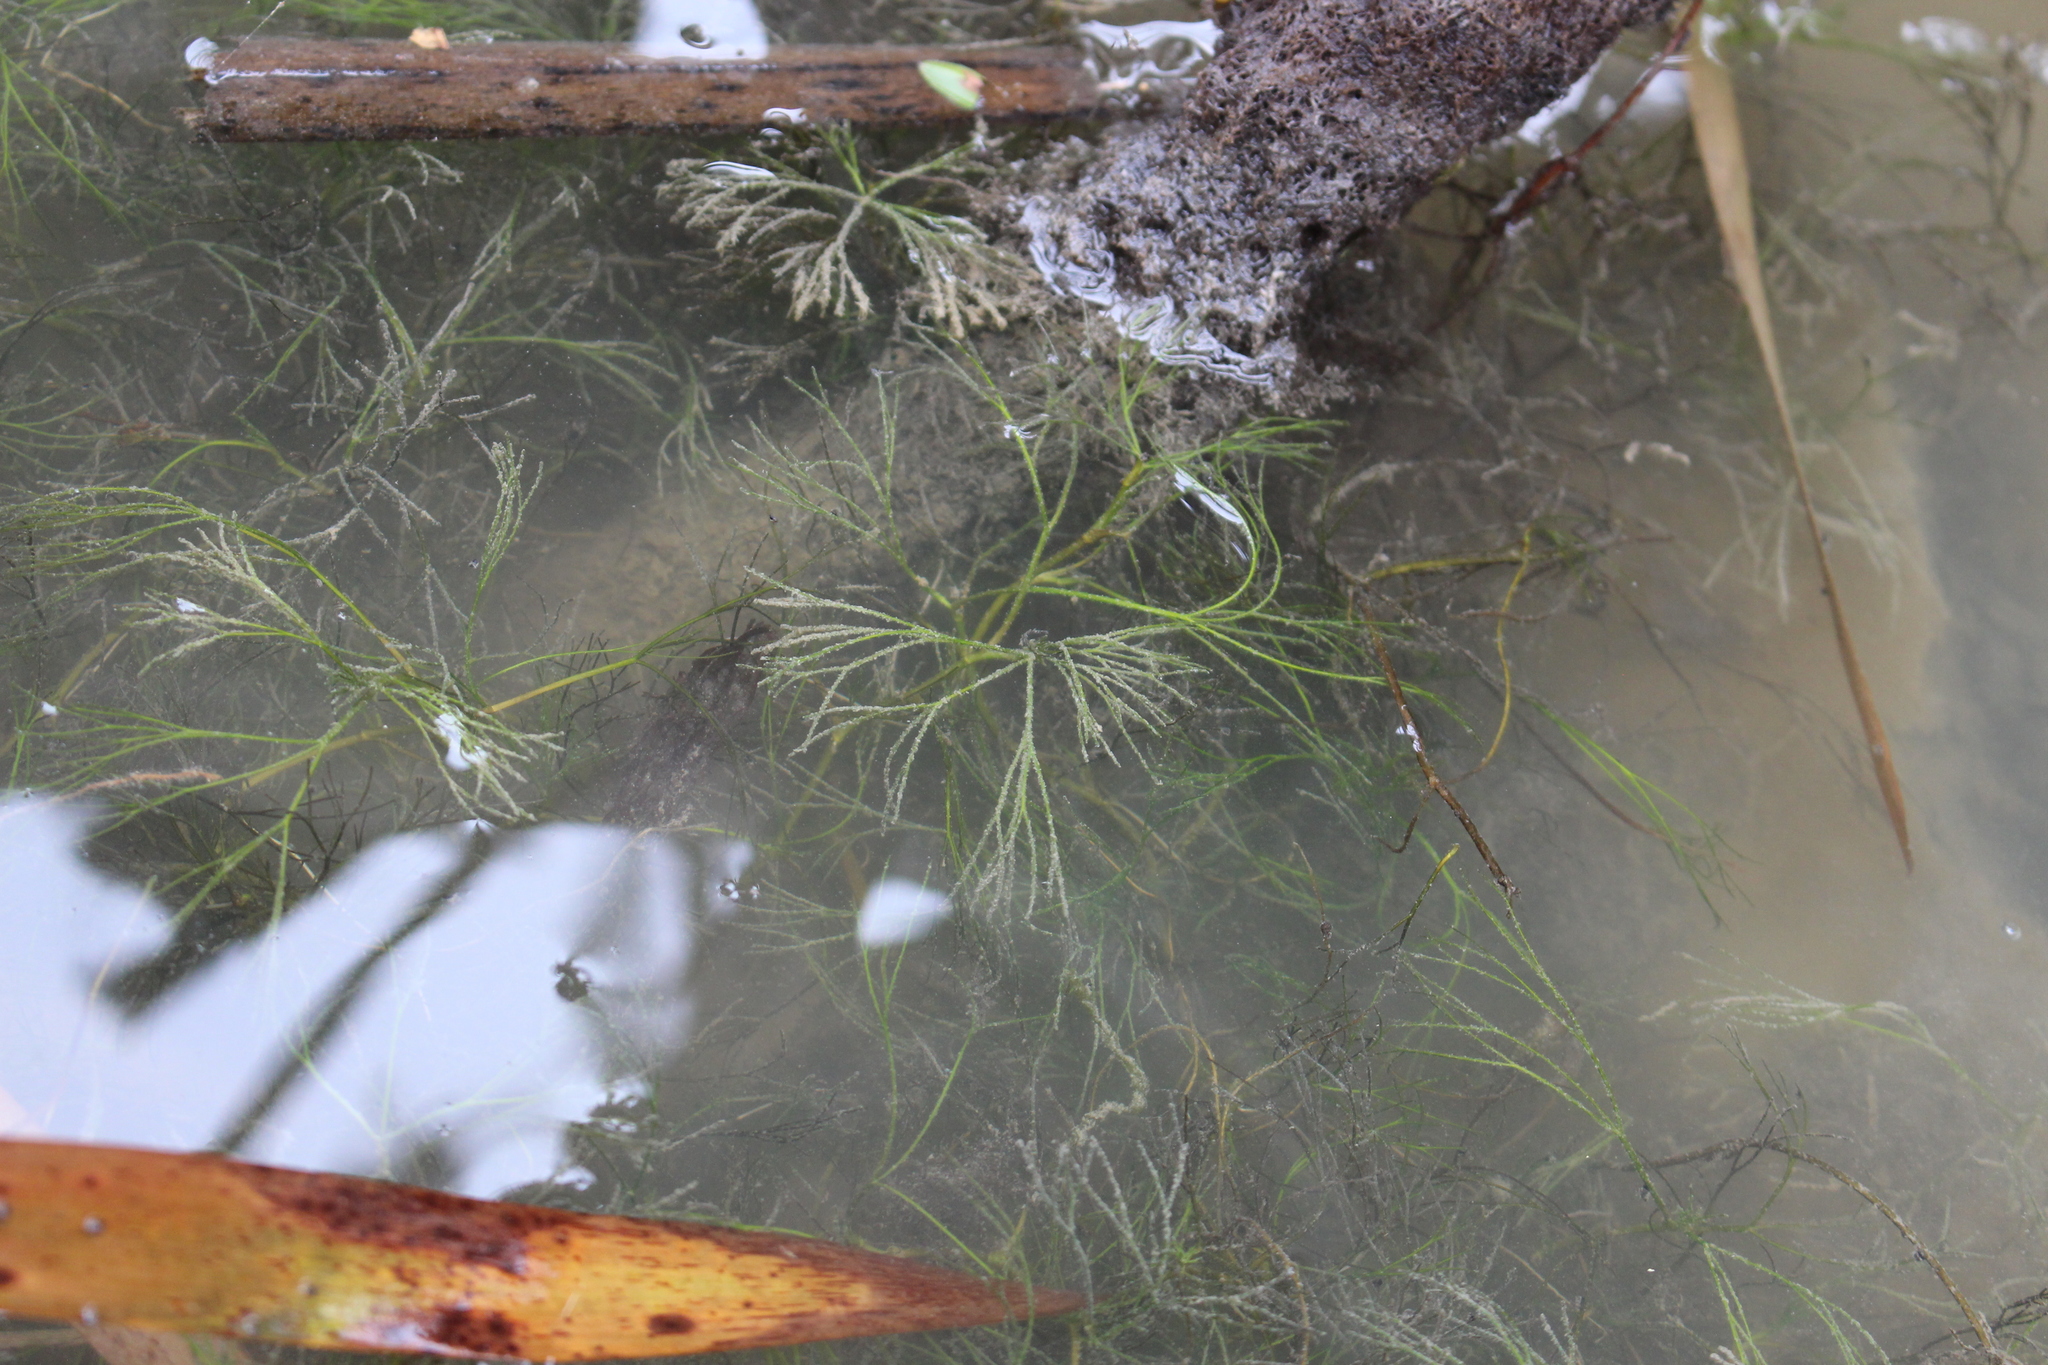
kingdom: Plantae
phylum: Tracheophyta
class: Magnoliopsida
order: Ranunculales
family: Ranunculaceae
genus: Ranunculus
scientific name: Ranunculus trichophyllus
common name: Thread-leaved water-crowfoot
